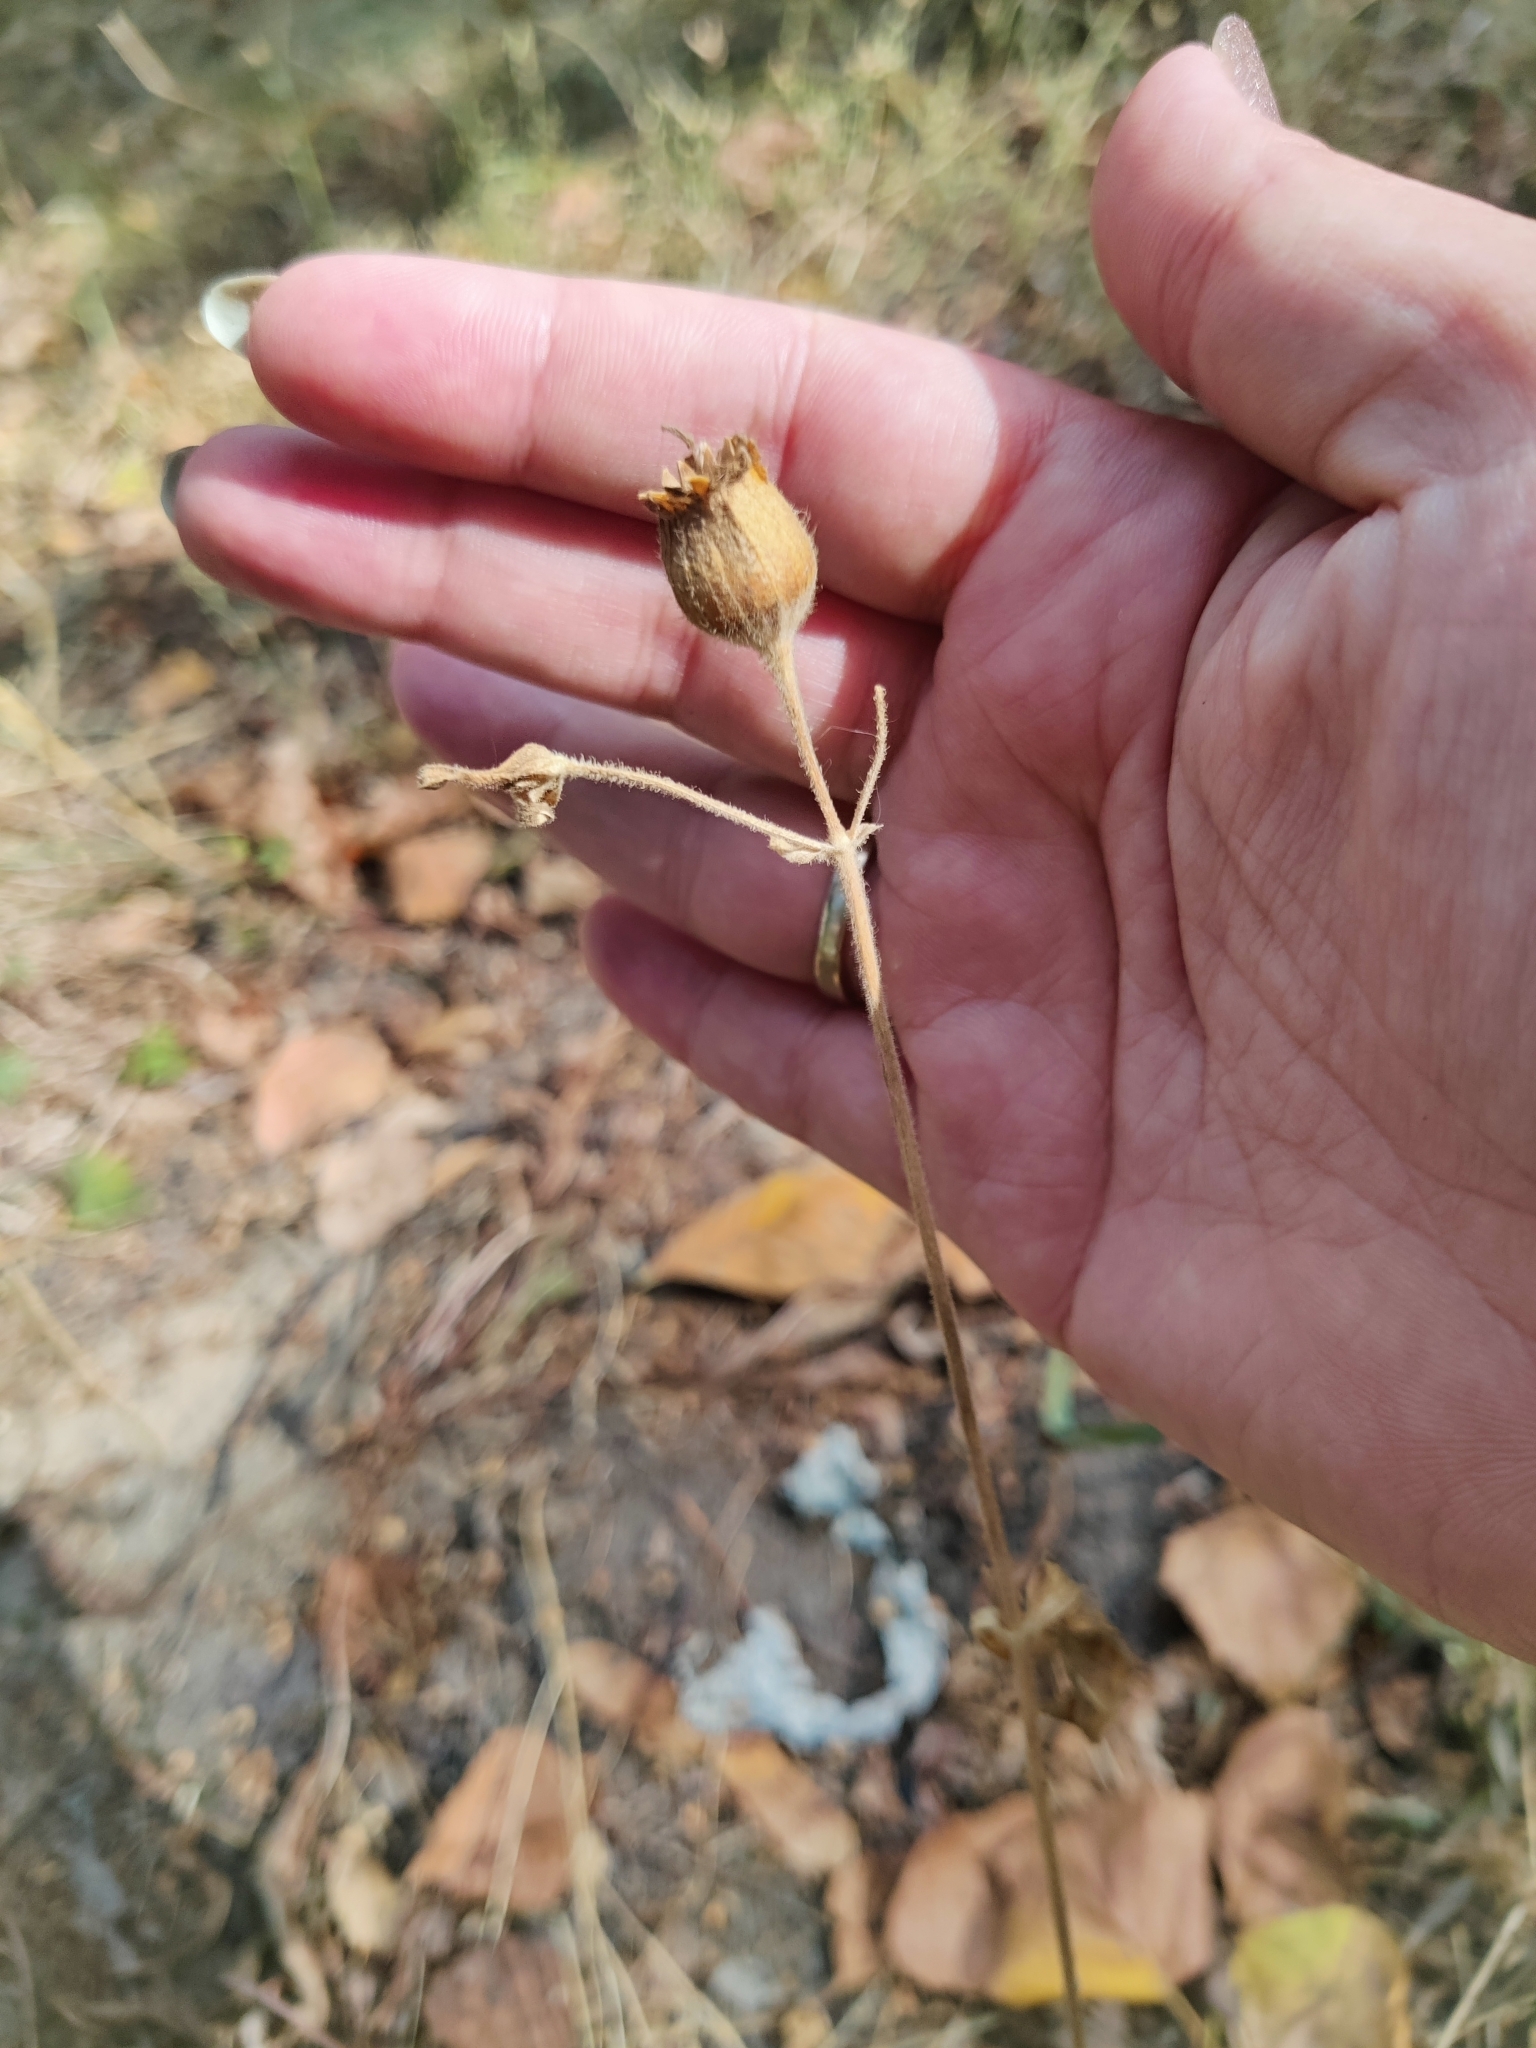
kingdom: Plantae
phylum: Tracheophyta
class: Magnoliopsida
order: Caryophyllales
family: Caryophyllaceae
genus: Silene
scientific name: Silene latifolia
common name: White campion
